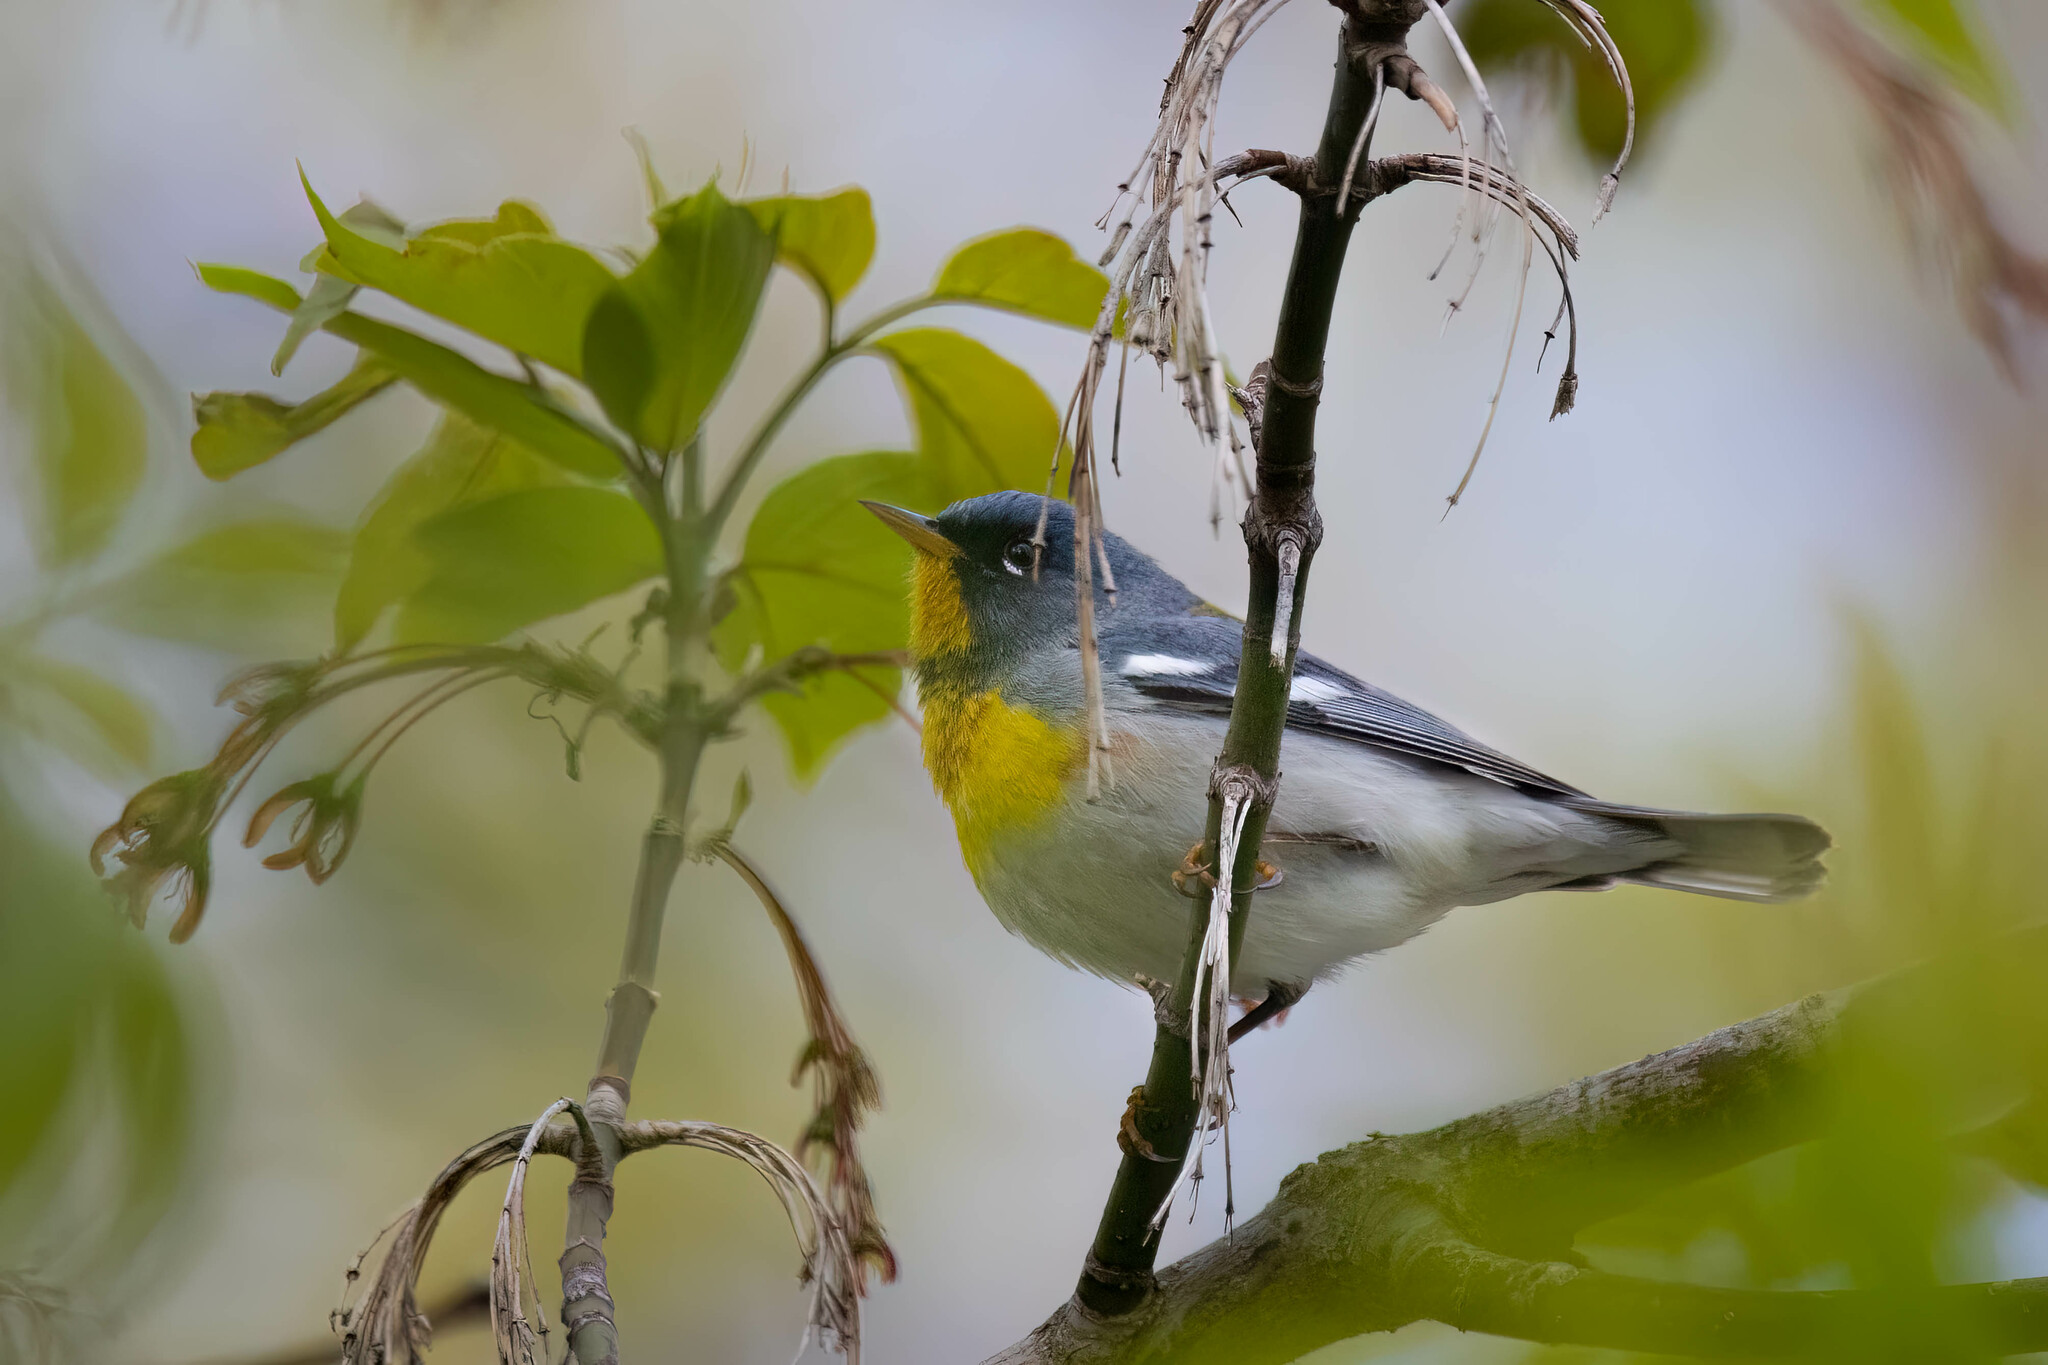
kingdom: Animalia
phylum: Chordata
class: Aves
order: Passeriformes
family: Parulidae
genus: Setophaga
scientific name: Setophaga americana
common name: Northern parula
